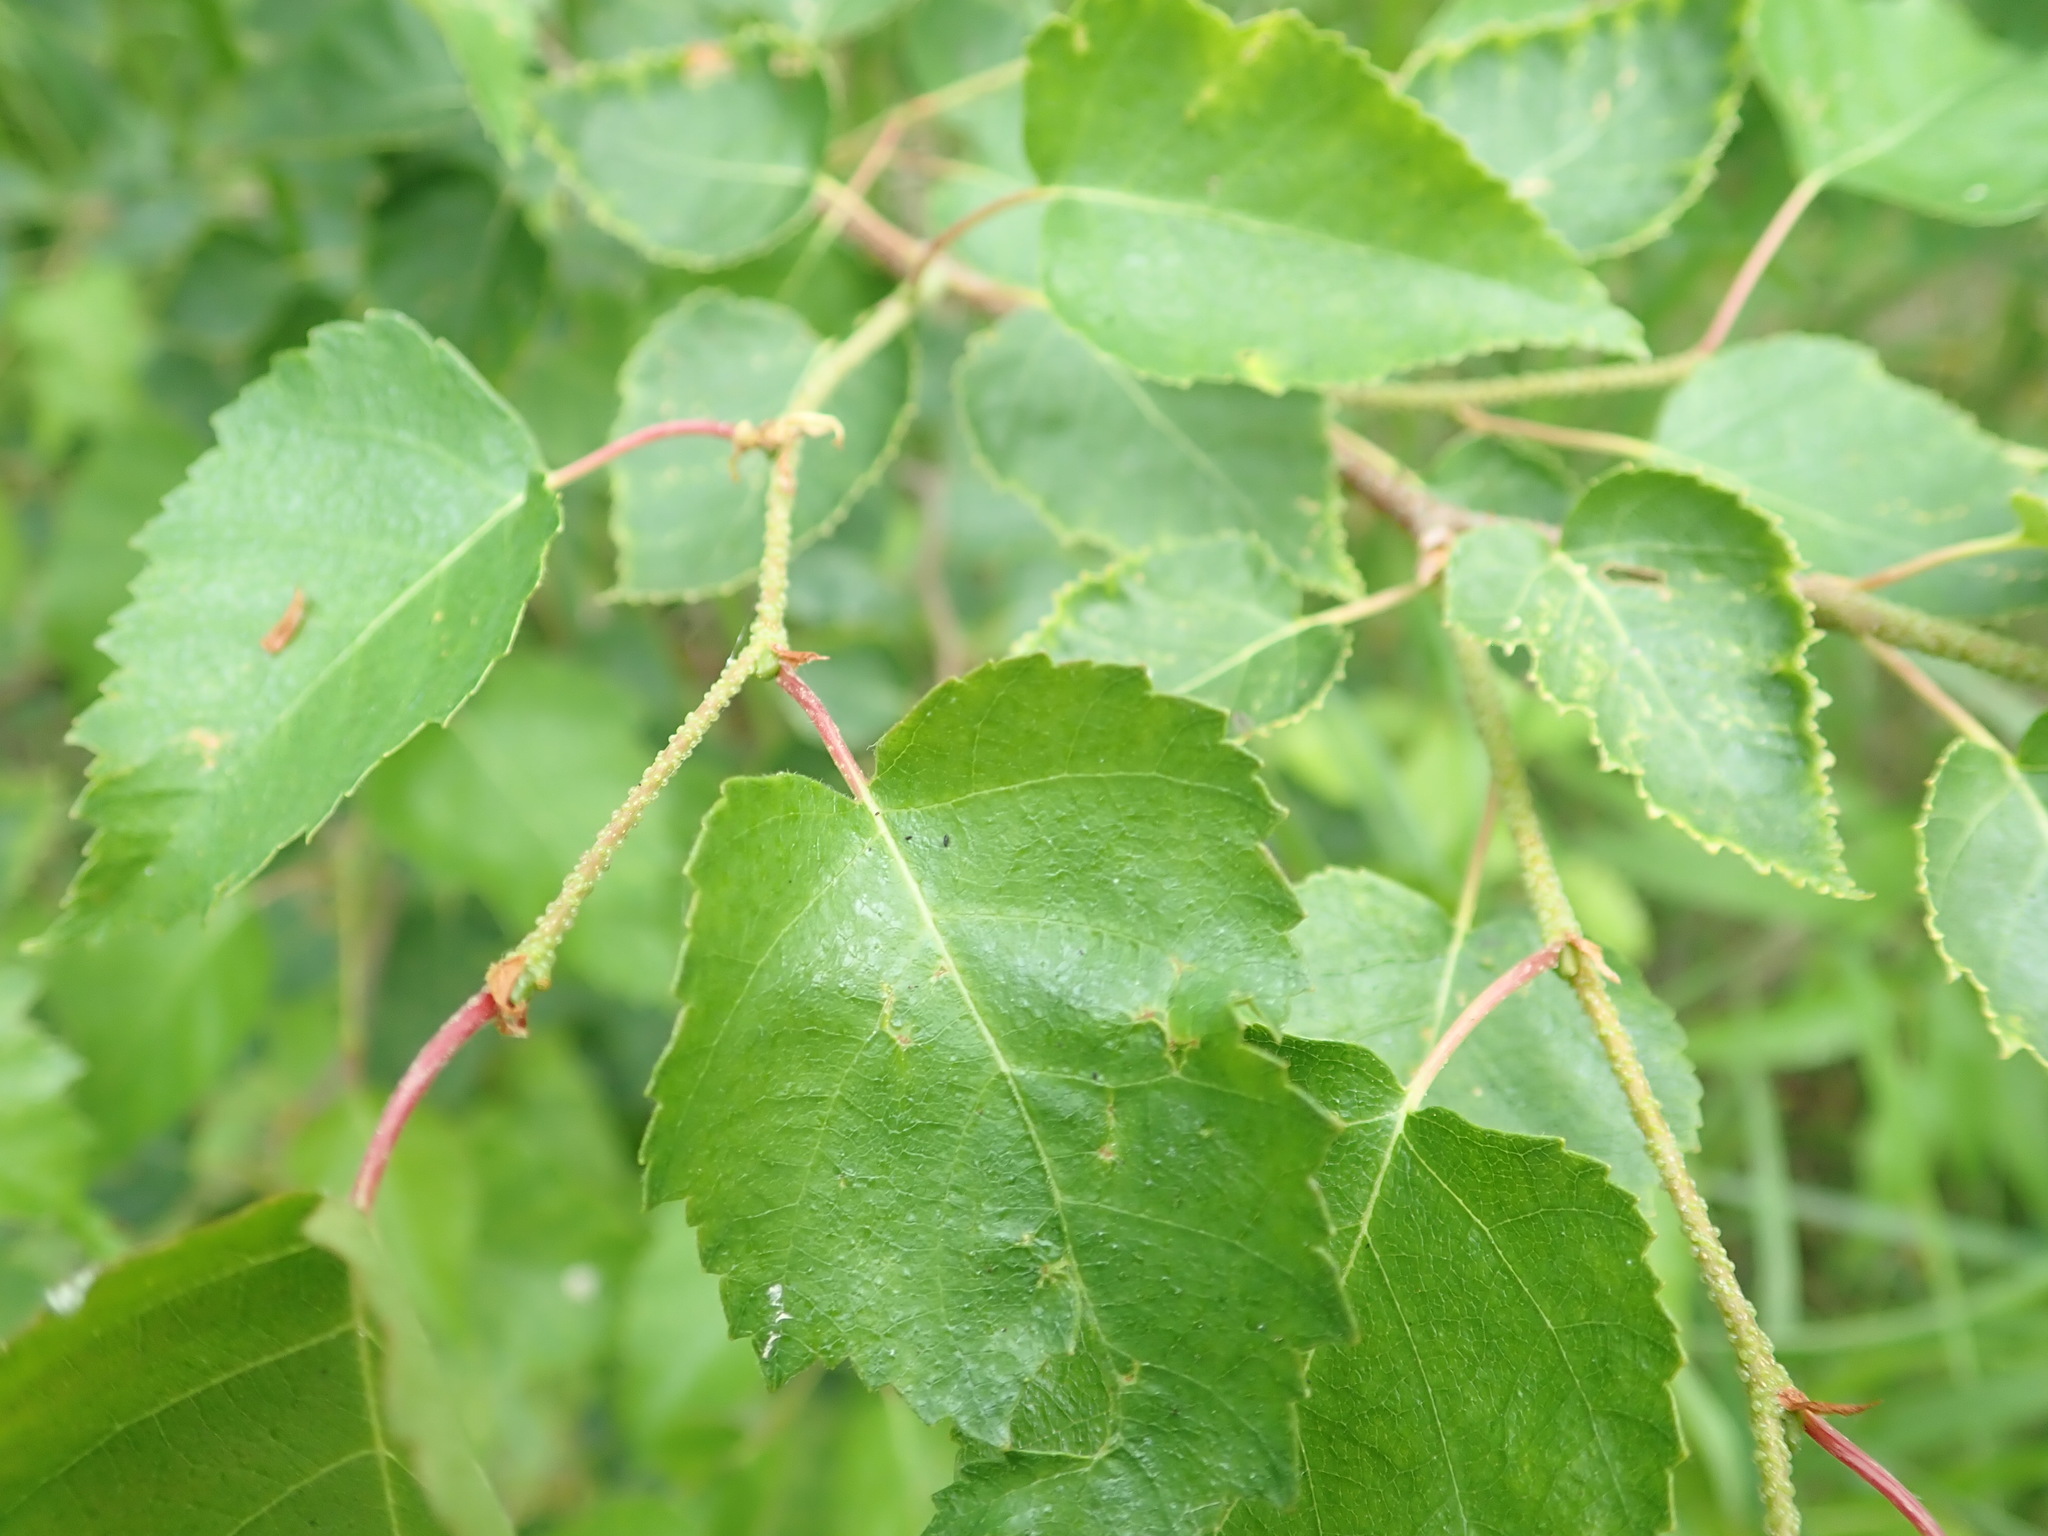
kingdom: Plantae
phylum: Tracheophyta
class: Magnoliopsida
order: Fagales
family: Betulaceae
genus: Betula
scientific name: Betula pendula
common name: Silver birch
